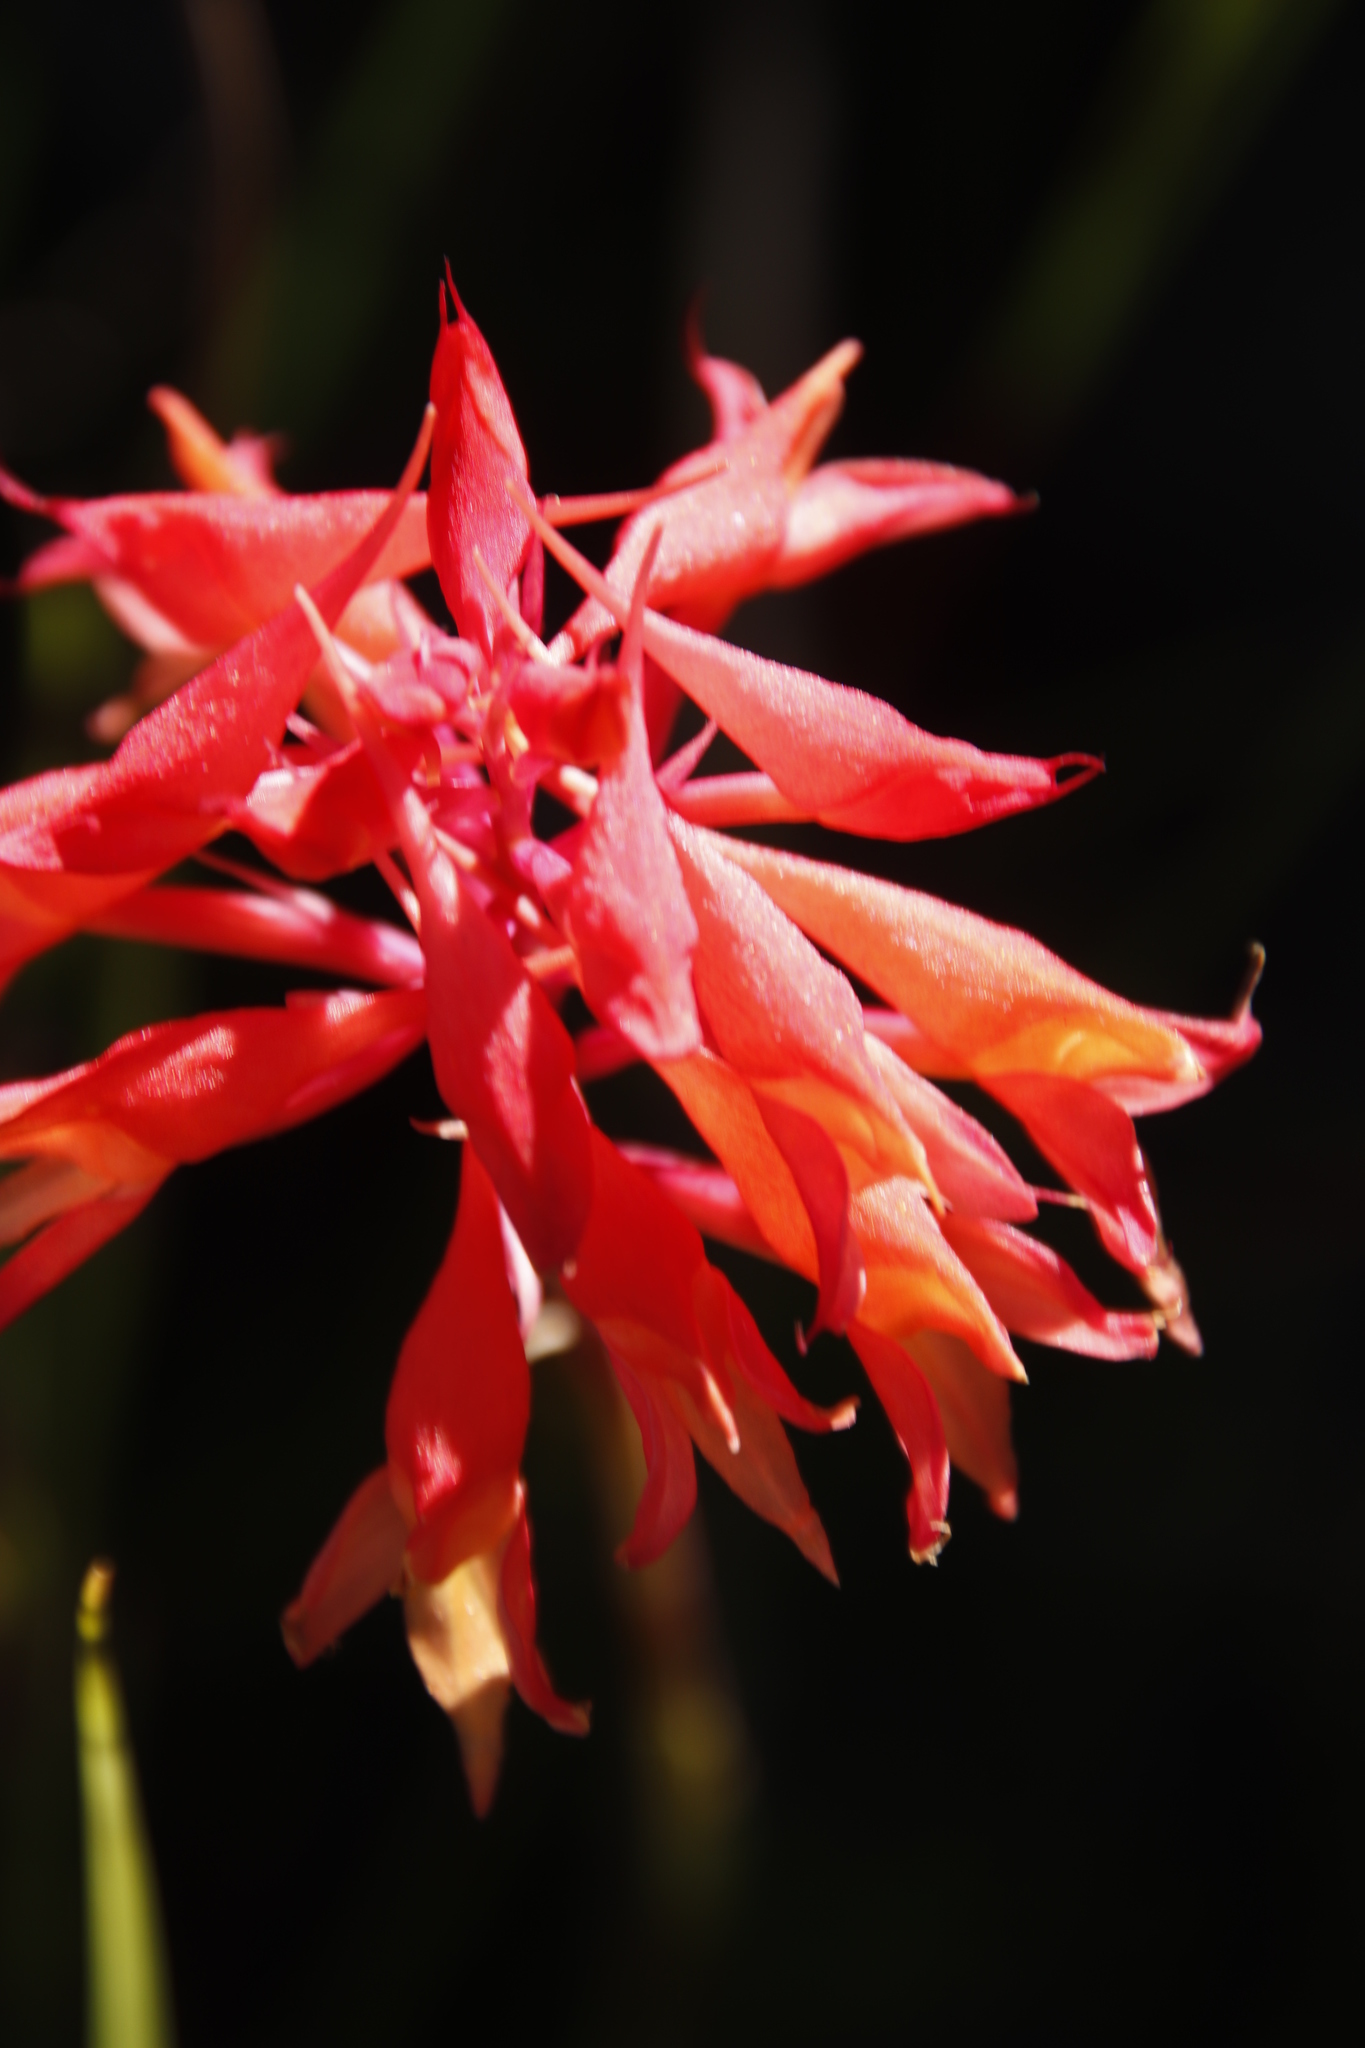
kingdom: Plantae
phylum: Tracheophyta
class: Liliopsida
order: Asparagales
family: Orchidaceae
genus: Disa
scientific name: Disa ferruginea
